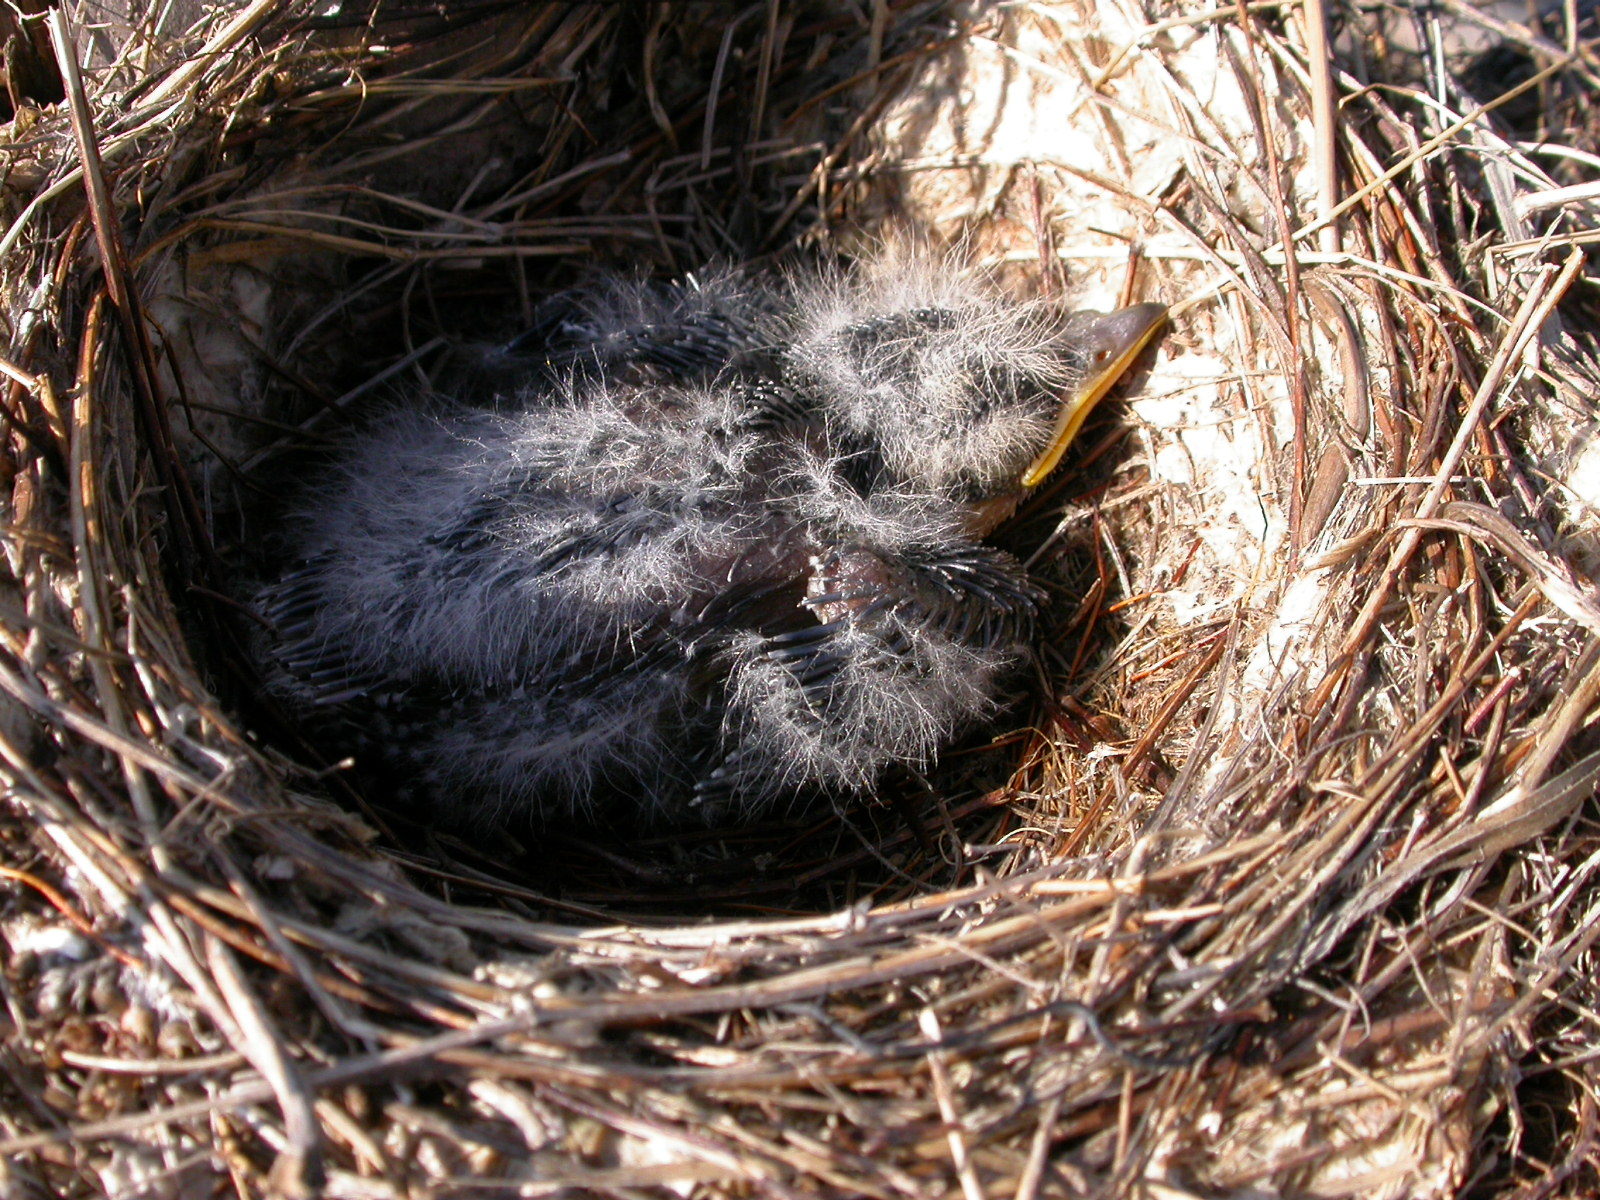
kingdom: Animalia
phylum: Chordata
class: Aves
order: Passeriformes
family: Tyrannidae
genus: Tyrannus
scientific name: Tyrannus tyrannus
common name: Eastern kingbird
